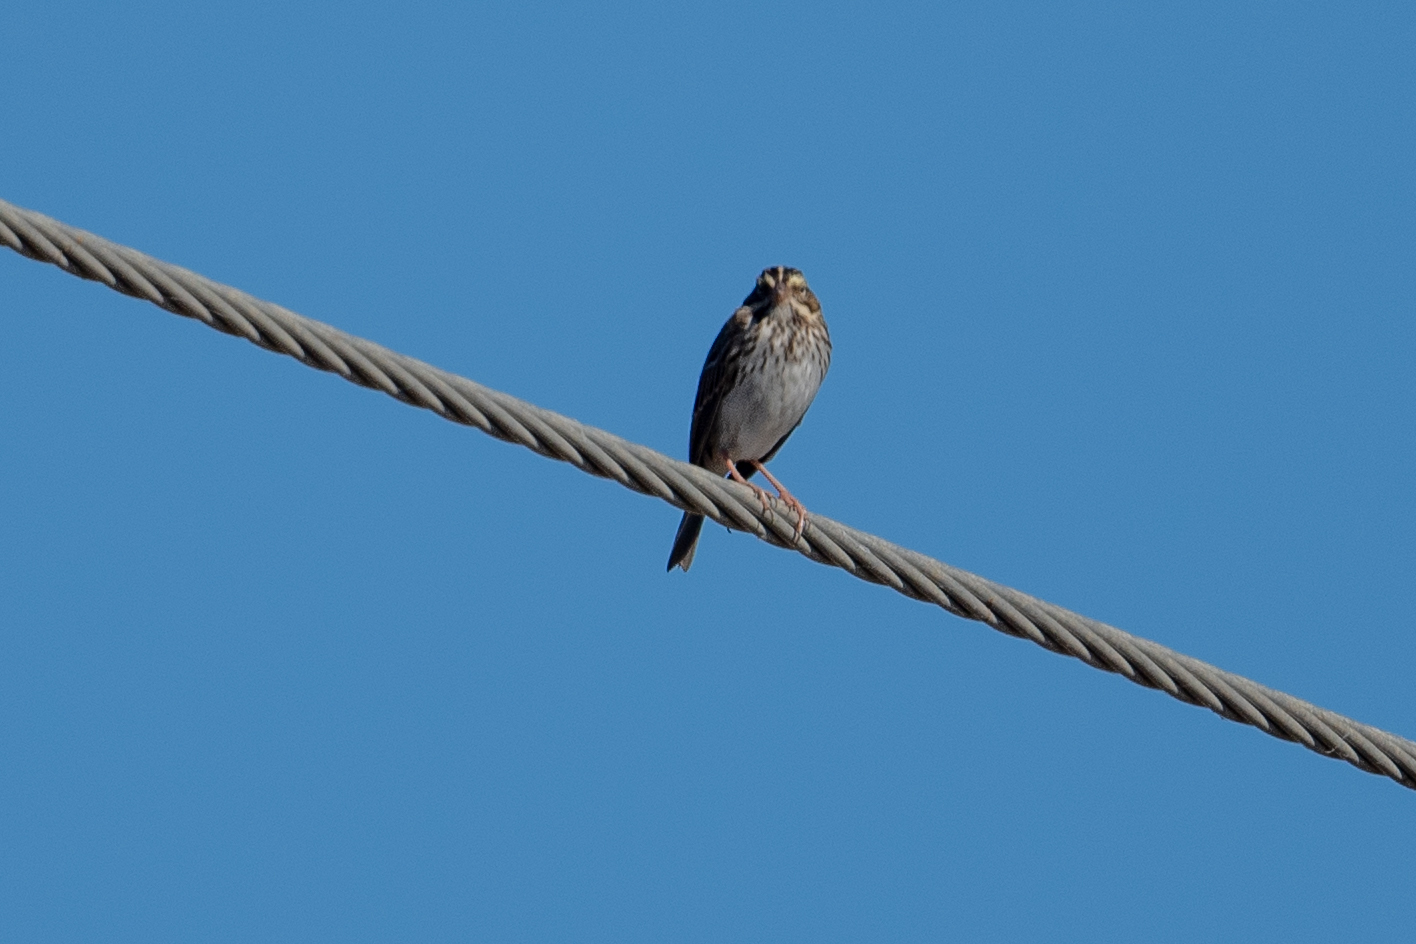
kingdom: Animalia
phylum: Chordata
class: Aves
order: Passeriformes
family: Passerellidae
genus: Passerculus
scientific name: Passerculus sandwichensis
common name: Savannah sparrow
